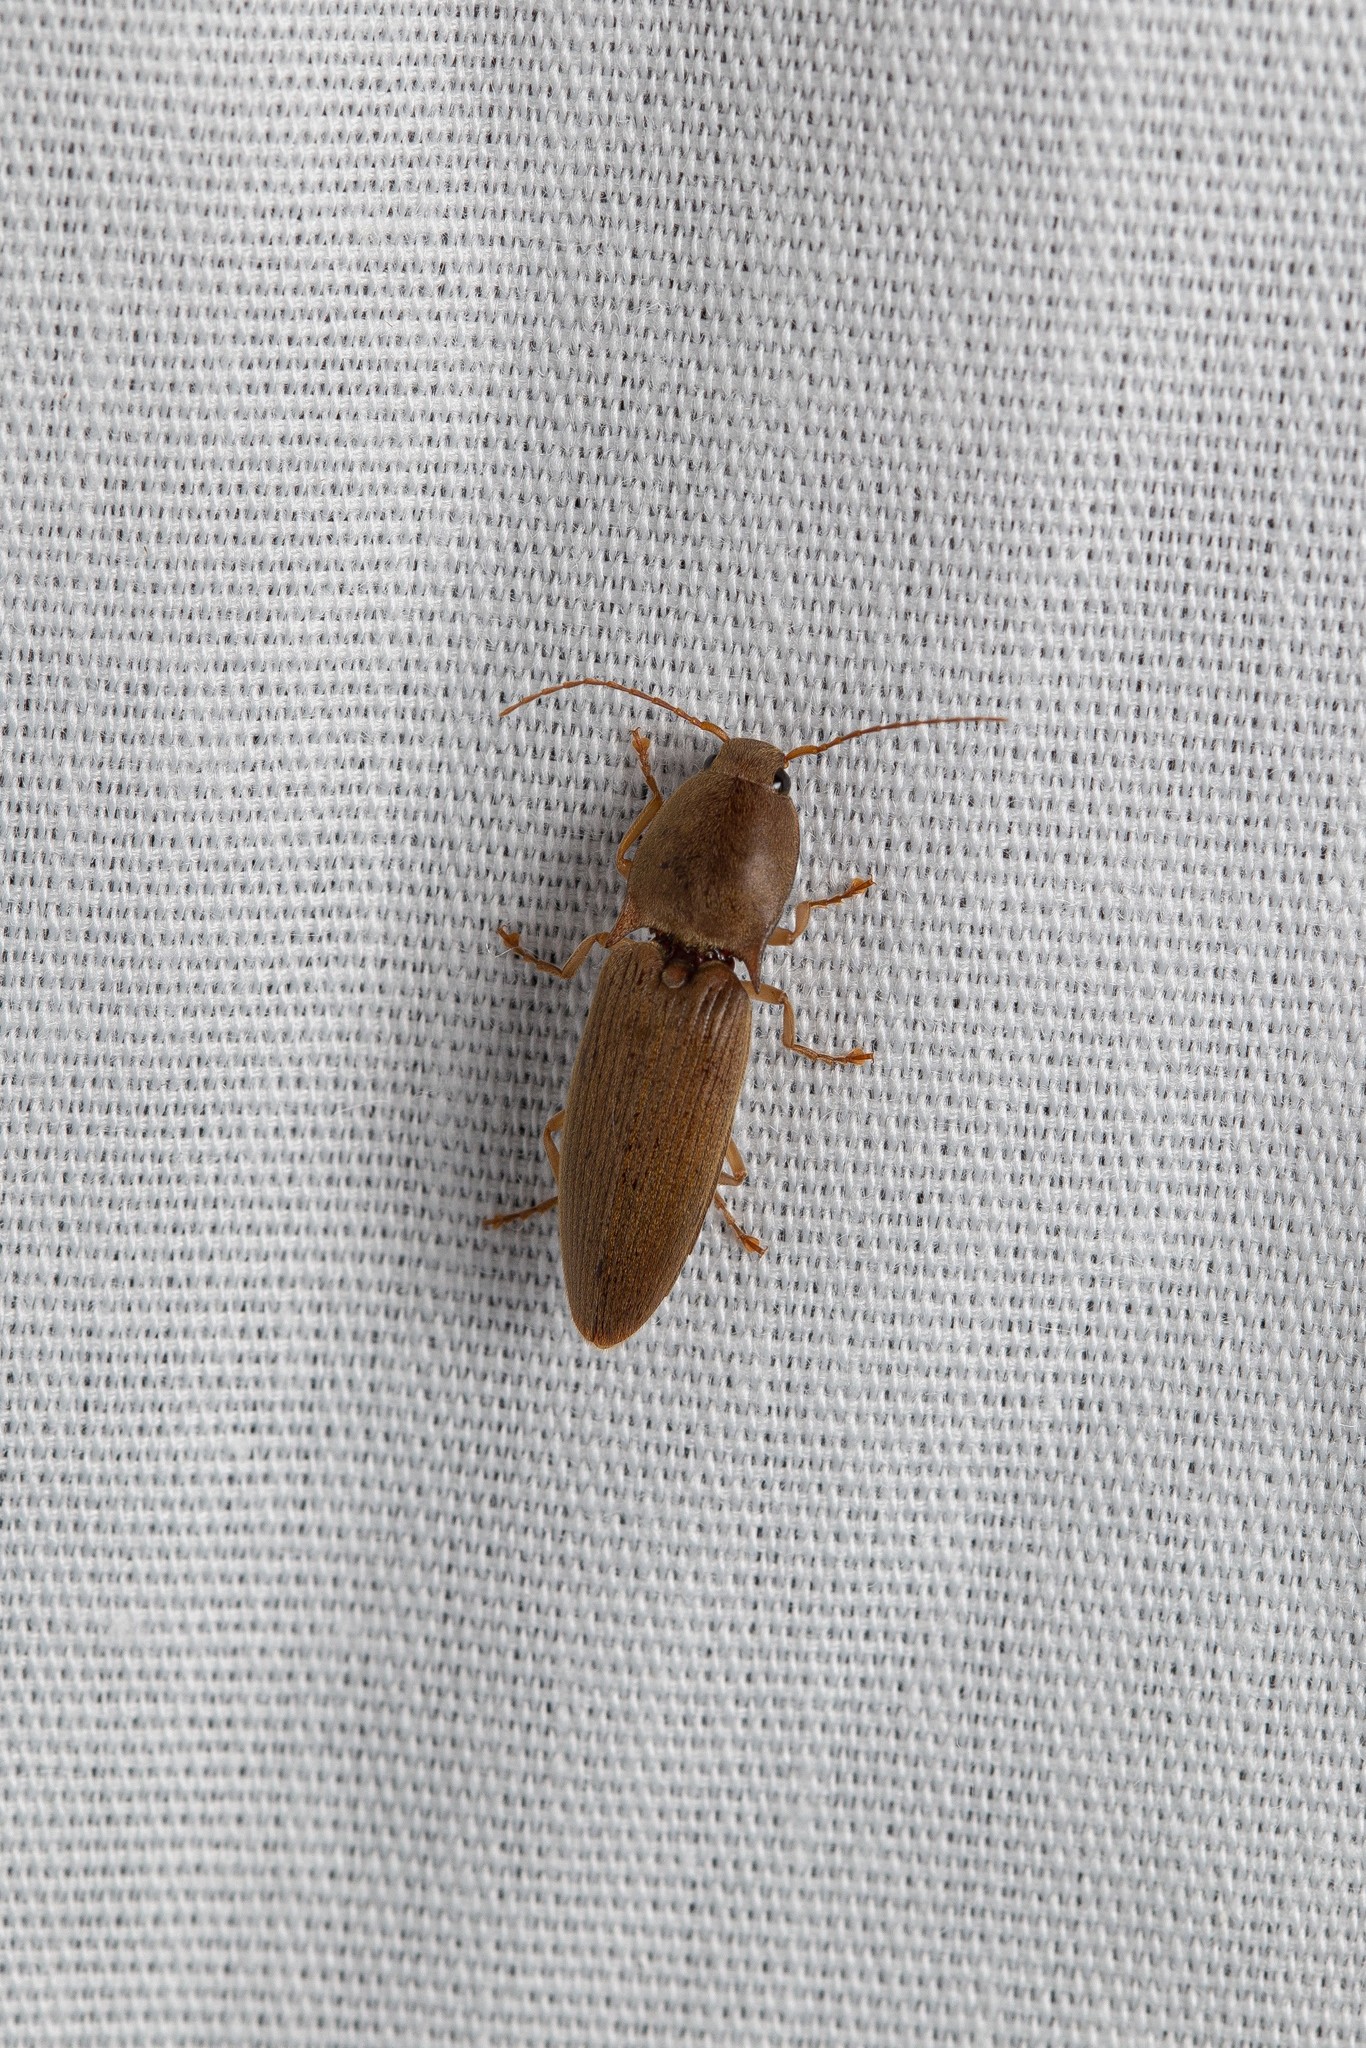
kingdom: Animalia
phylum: Arthropoda
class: Insecta
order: Coleoptera
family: Elateridae
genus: Monocrepidius
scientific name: Monocrepidius lividus
